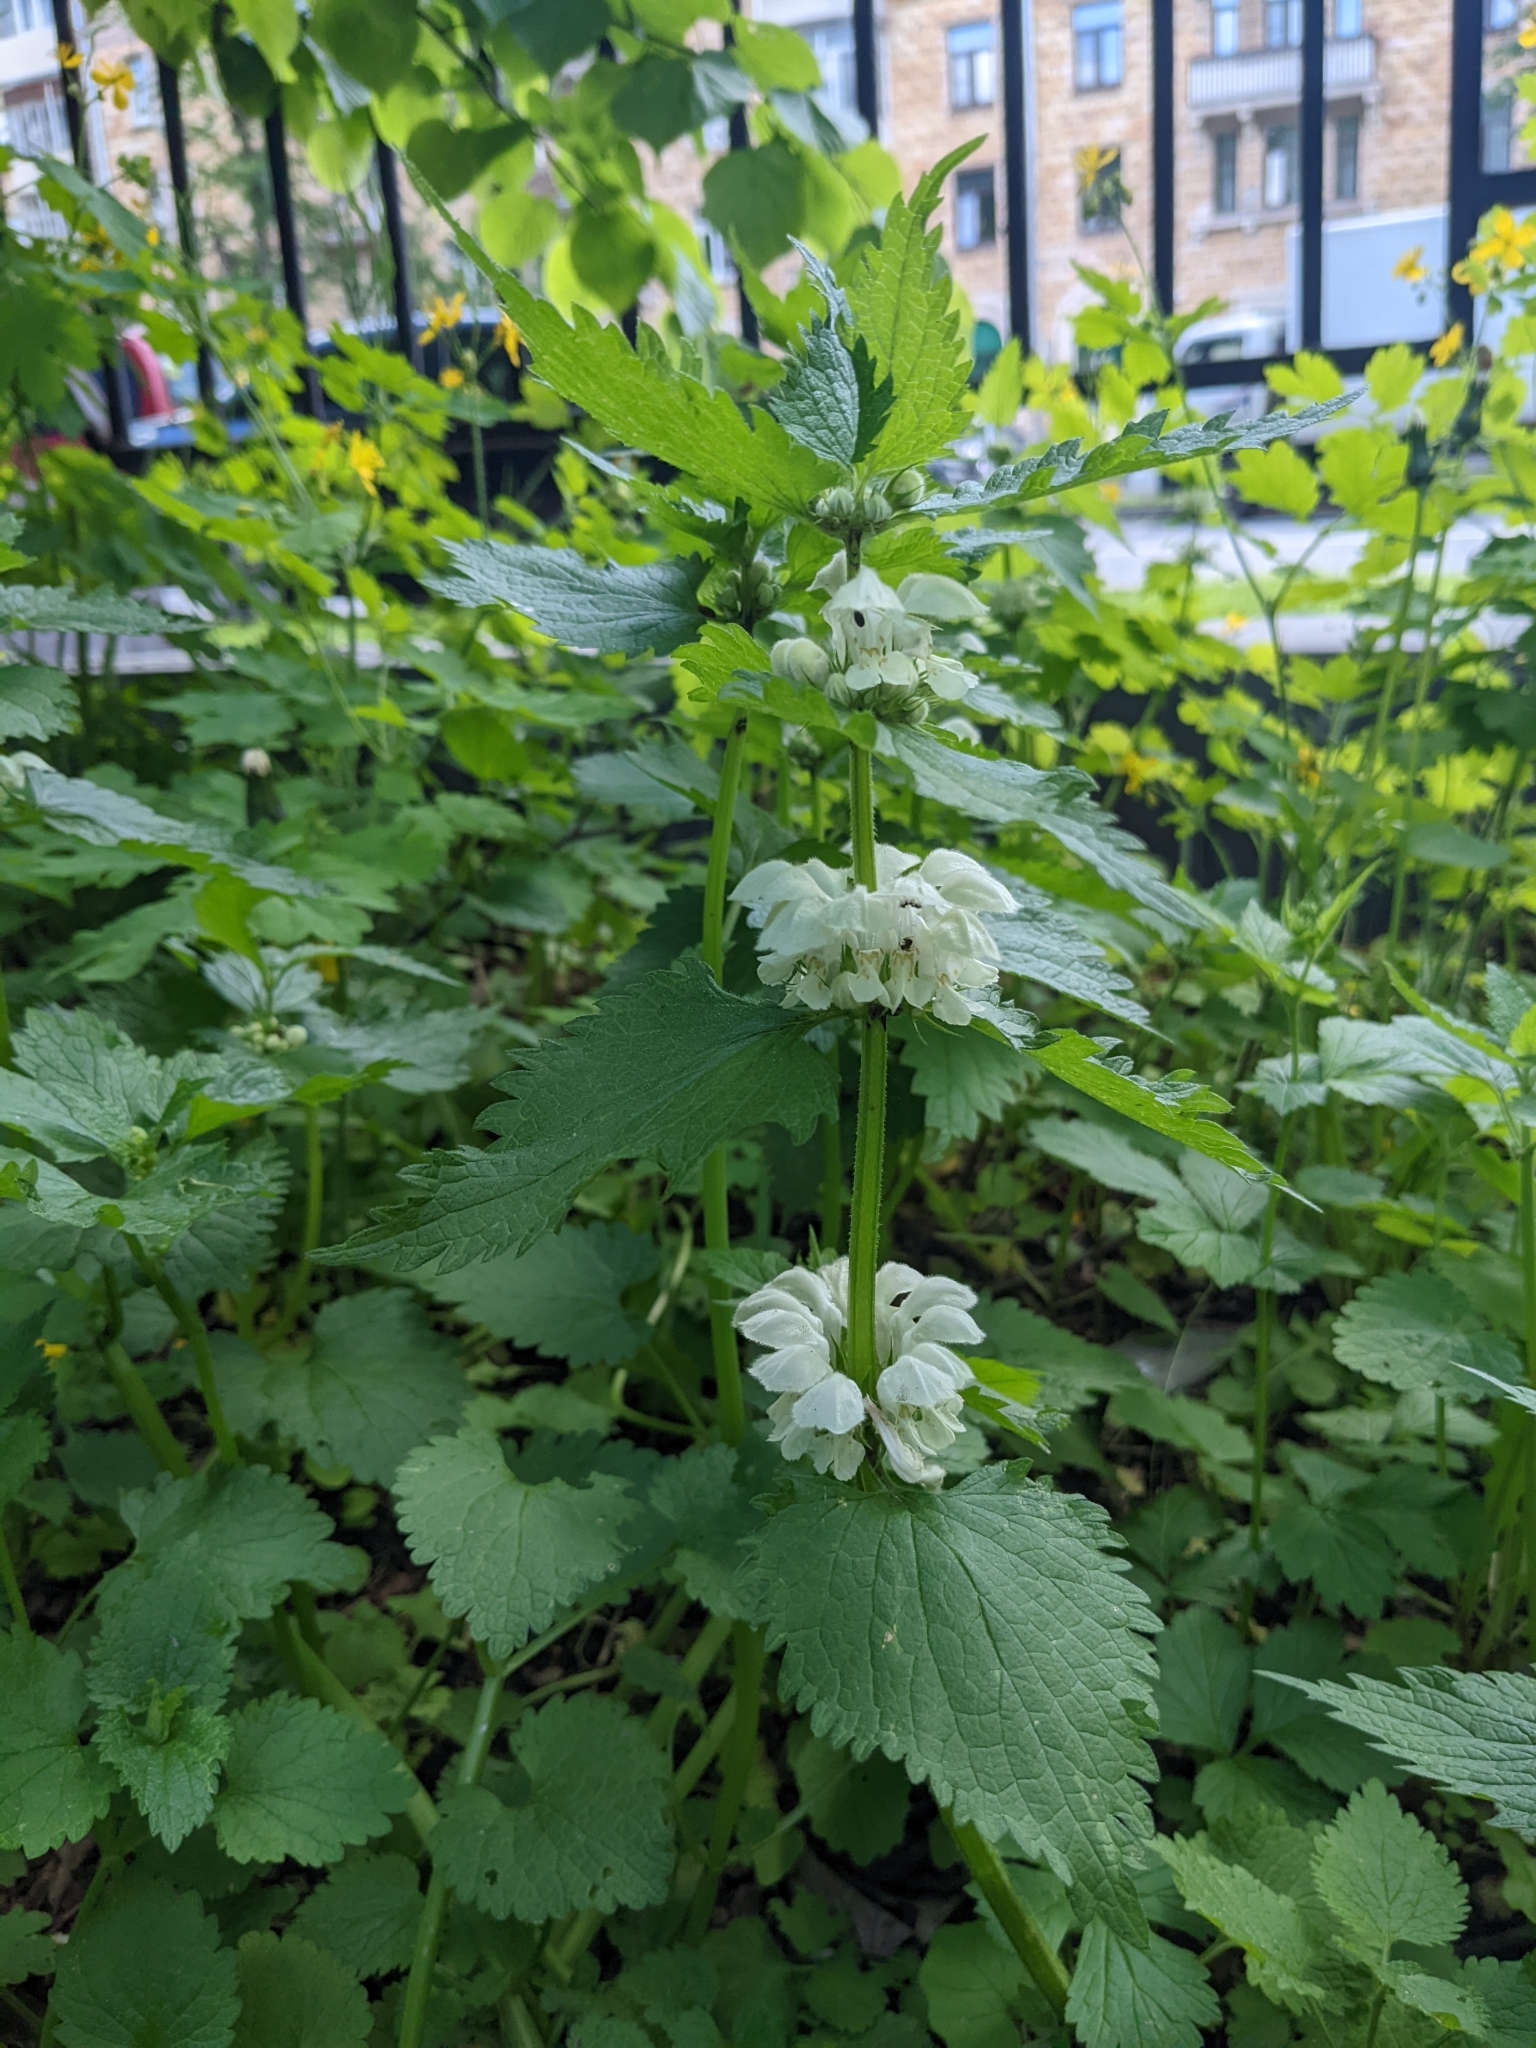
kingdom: Plantae
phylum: Tracheophyta
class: Magnoliopsida
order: Lamiales
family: Lamiaceae
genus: Lamium
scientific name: Lamium album
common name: White dead-nettle
